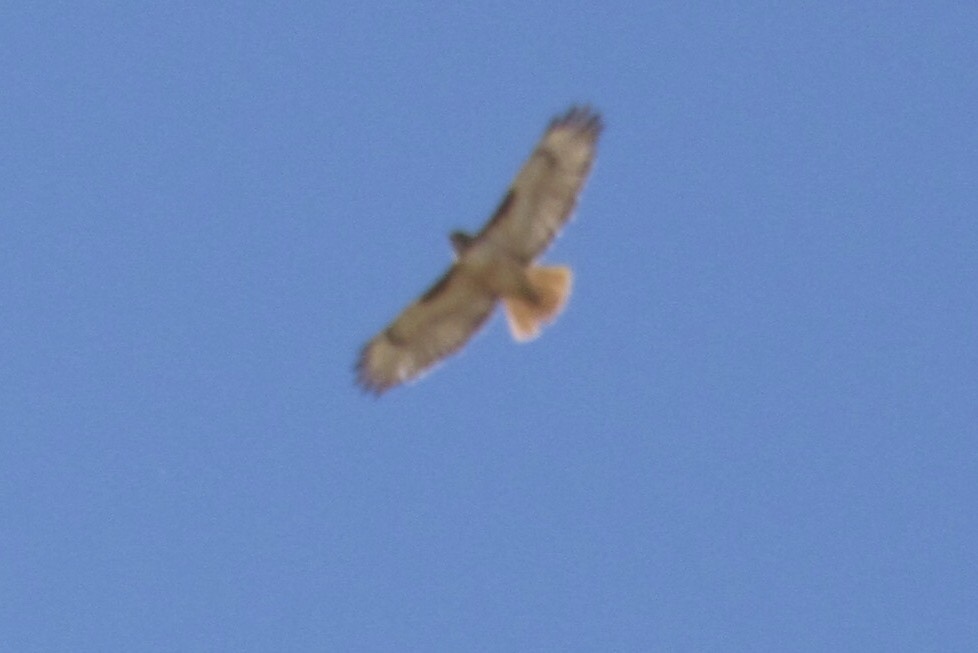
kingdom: Animalia
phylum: Chordata
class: Aves
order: Accipitriformes
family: Accipitridae
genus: Buteo
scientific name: Buteo jamaicensis
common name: Red-tailed hawk
